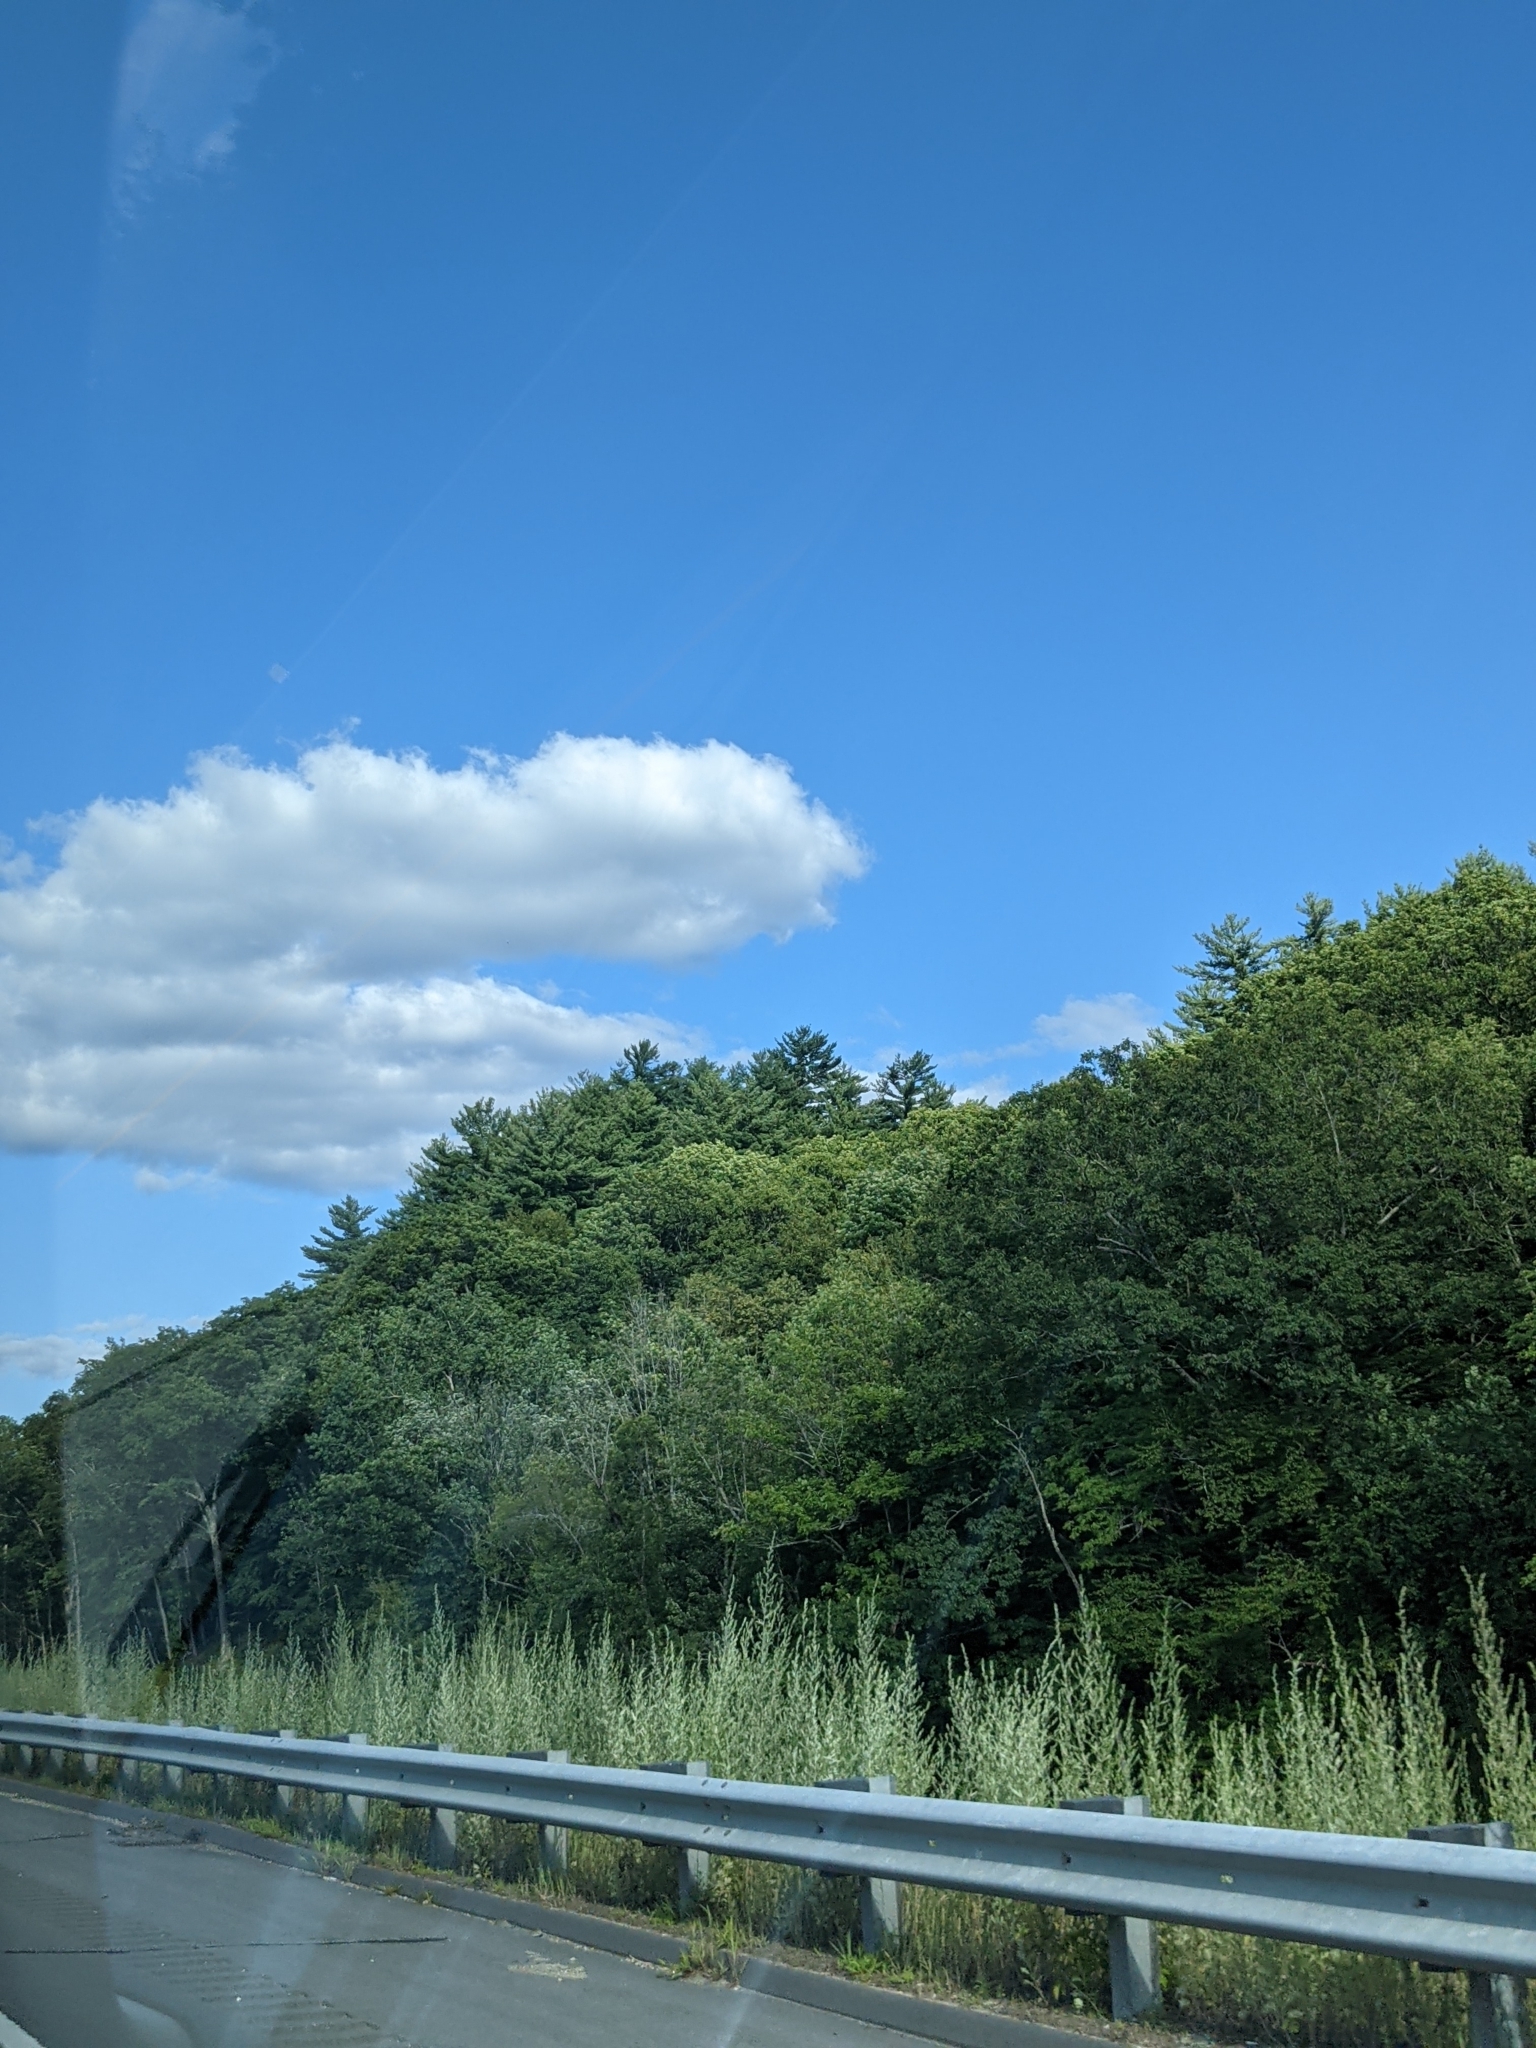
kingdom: Plantae
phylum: Tracheophyta
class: Pinopsida
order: Pinales
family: Pinaceae
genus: Pinus
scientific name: Pinus strobus
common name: Weymouth pine
